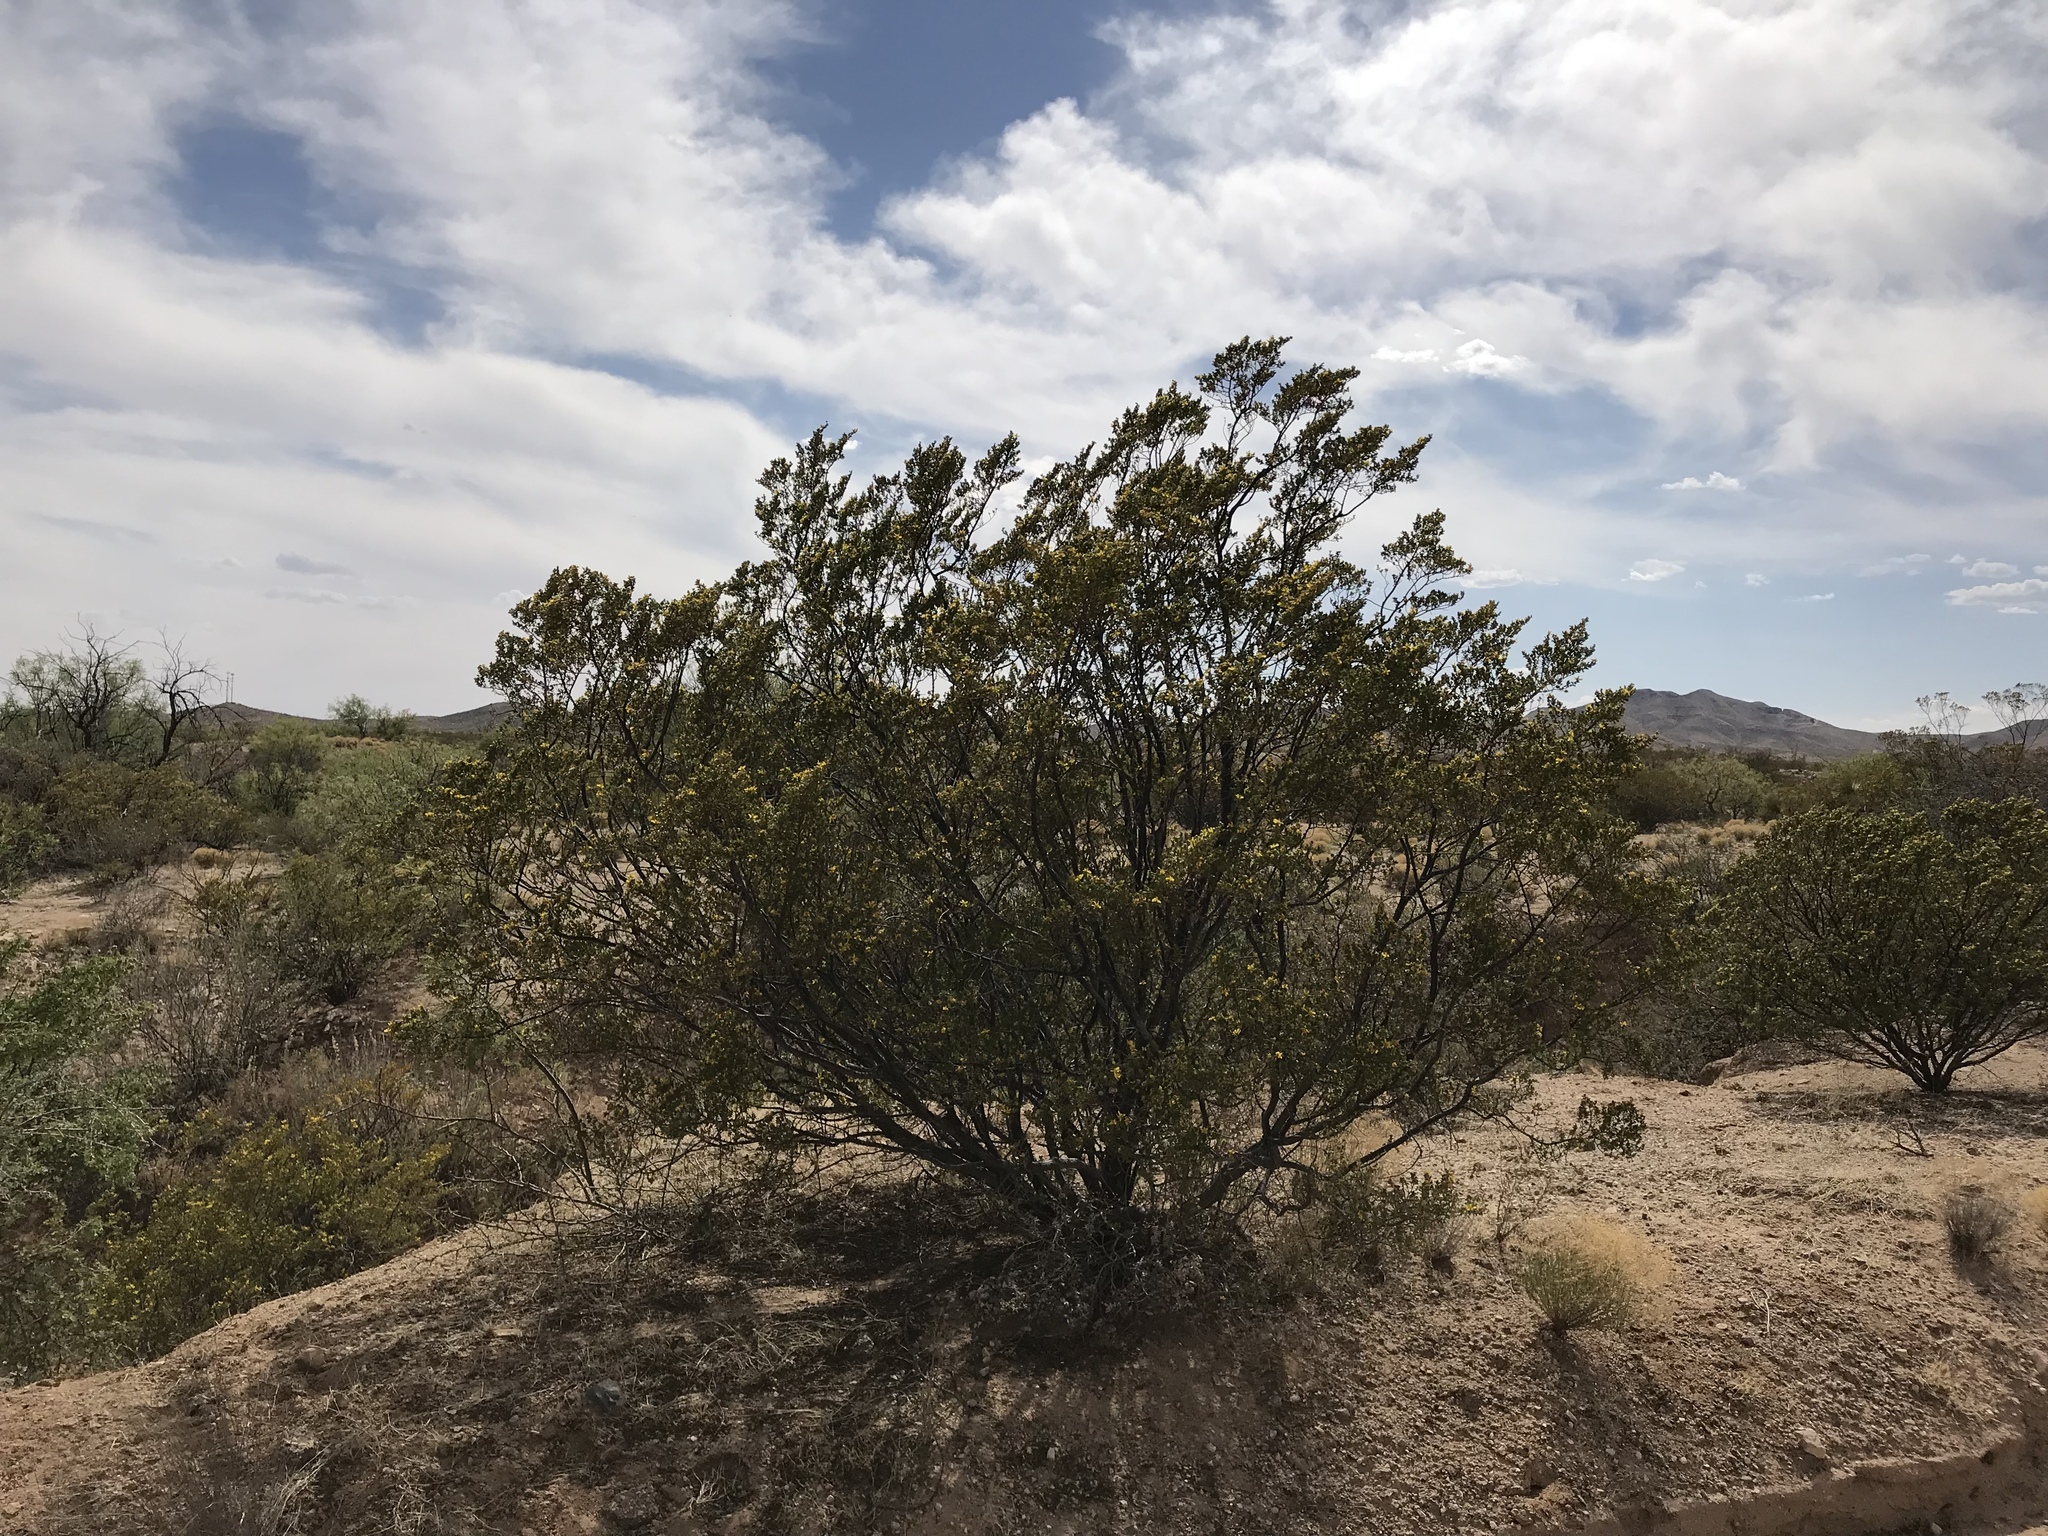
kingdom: Plantae
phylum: Tracheophyta
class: Magnoliopsida
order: Zygophyllales
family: Zygophyllaceae
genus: Larrea
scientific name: Larrea tridentata
